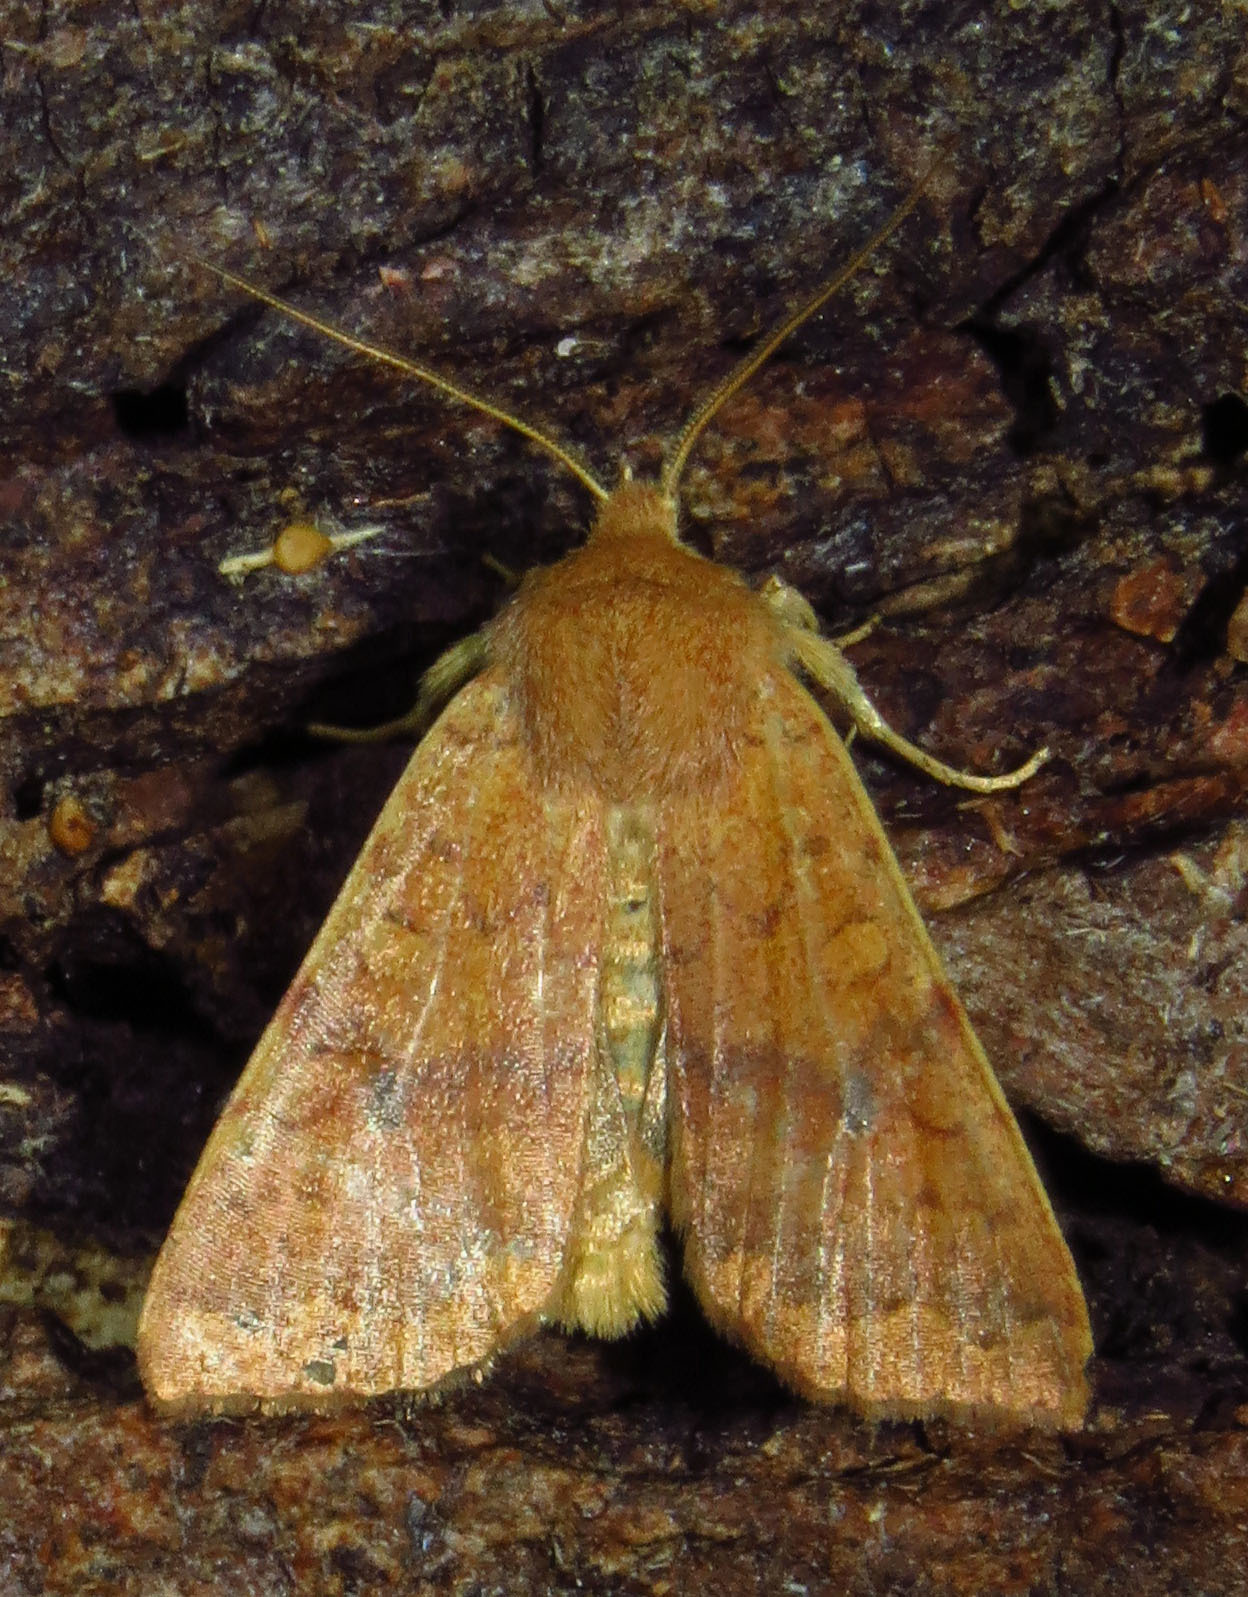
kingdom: Animalia
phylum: Arthropoda
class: Insecta
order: Lepidoptera
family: Noctuidae
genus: Agrochola
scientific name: Agrochola bicolorago
